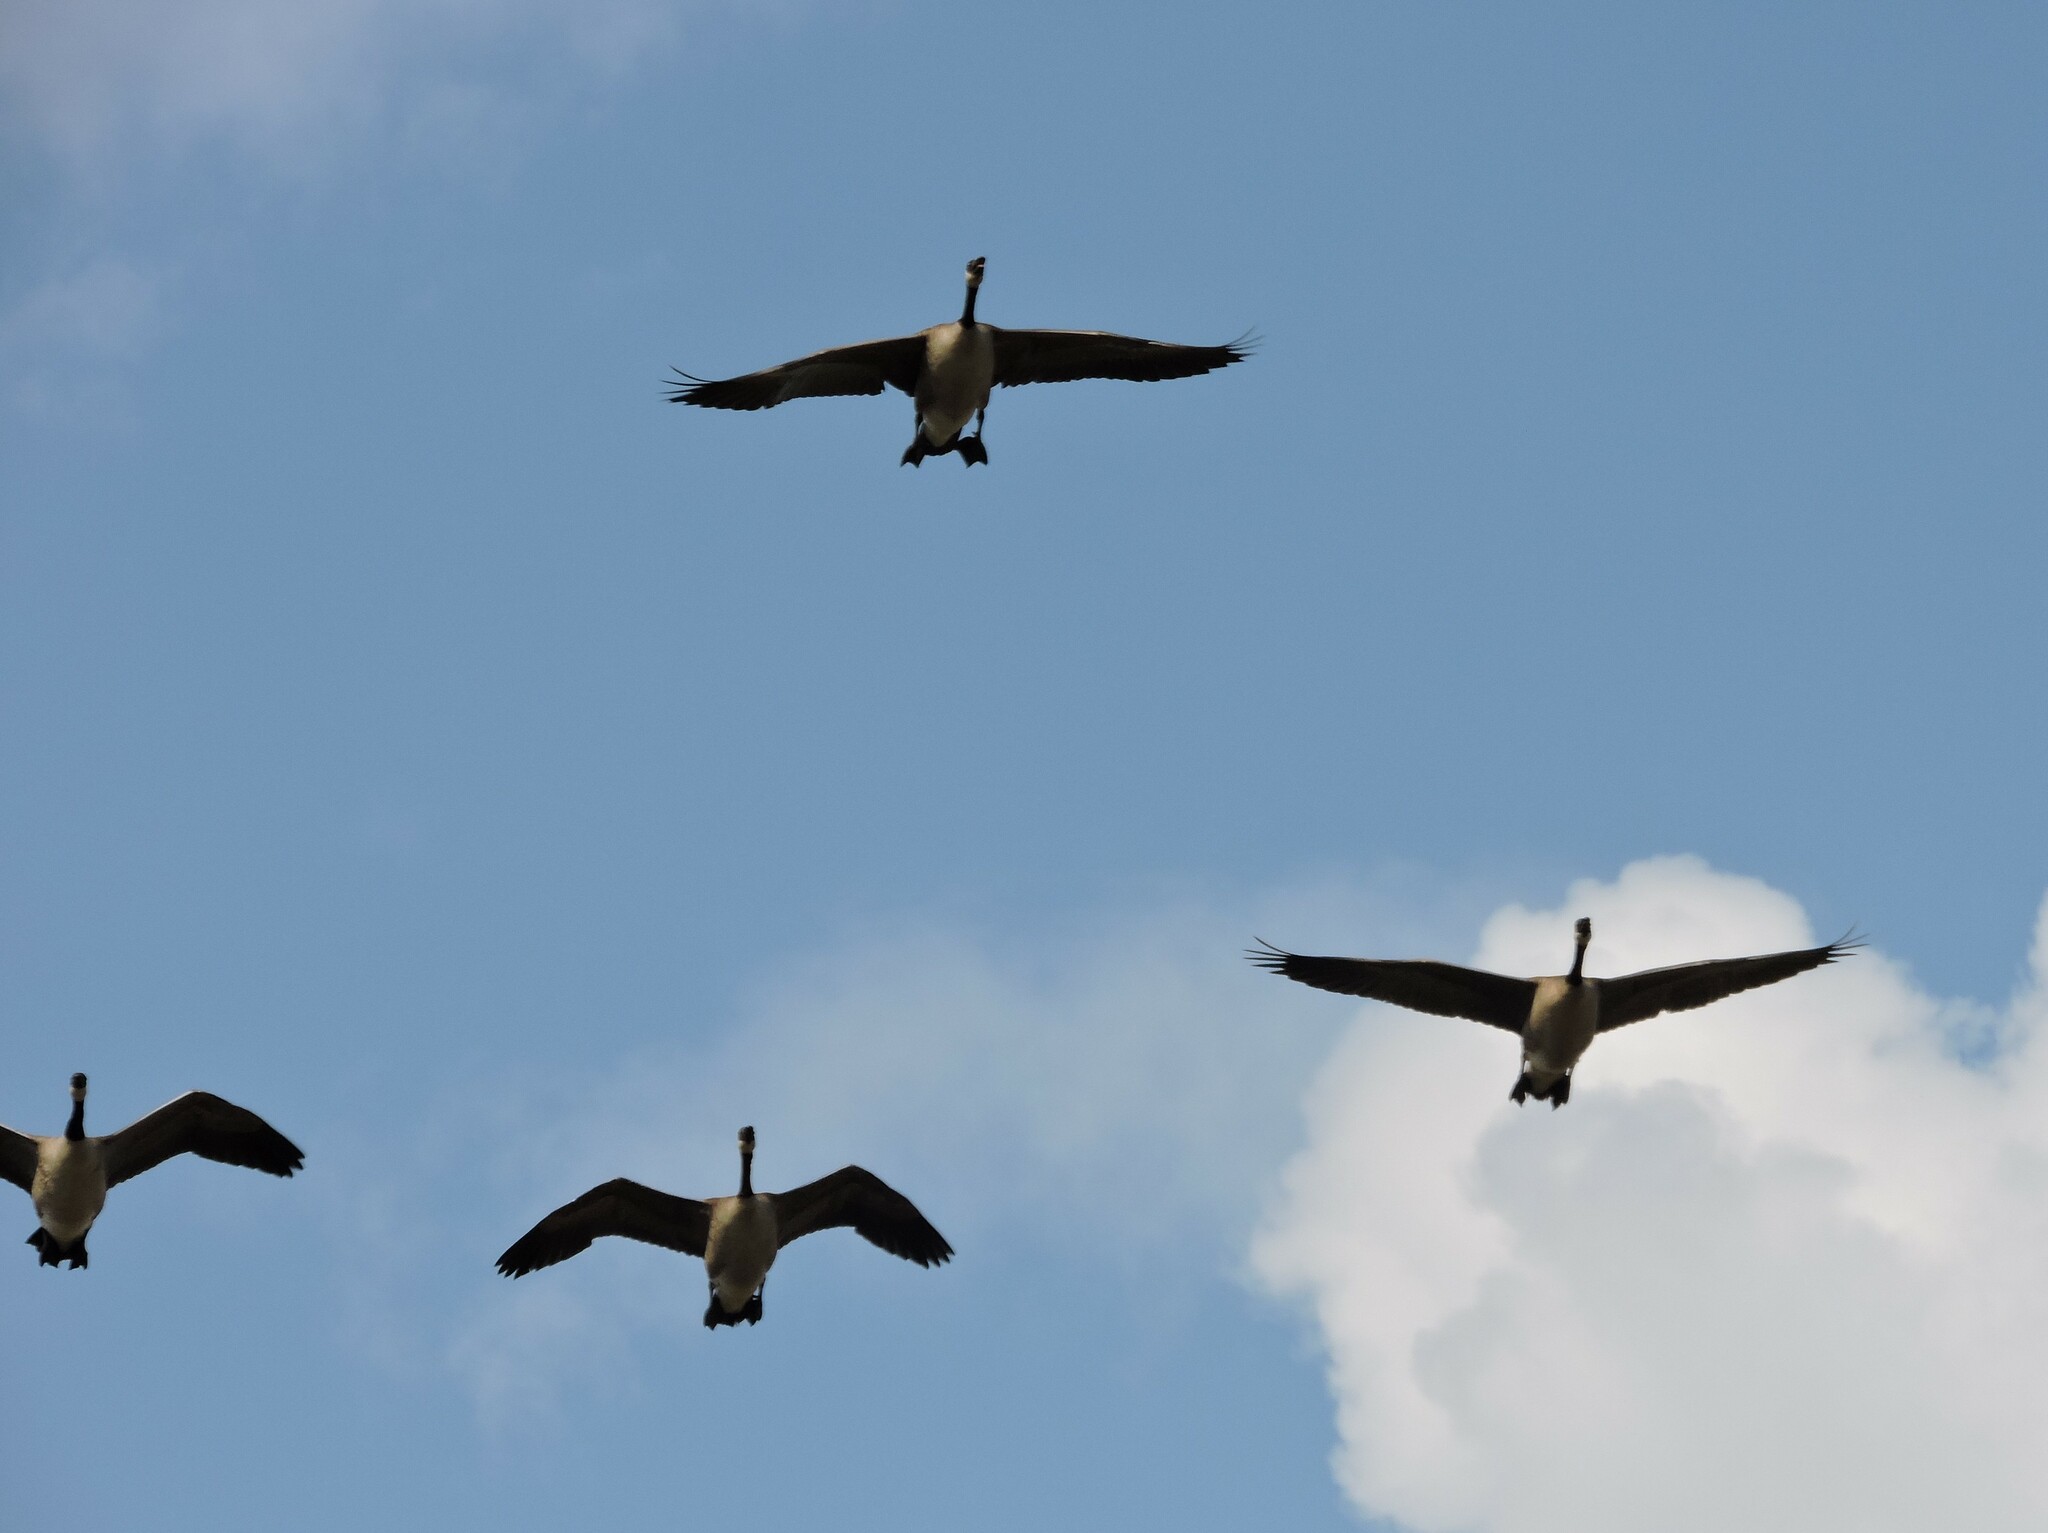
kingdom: Animalia
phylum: Chordata
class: Aves
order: Anseriformes
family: Anatidae
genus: Branta
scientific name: Branta canadensis
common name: Canada goose
